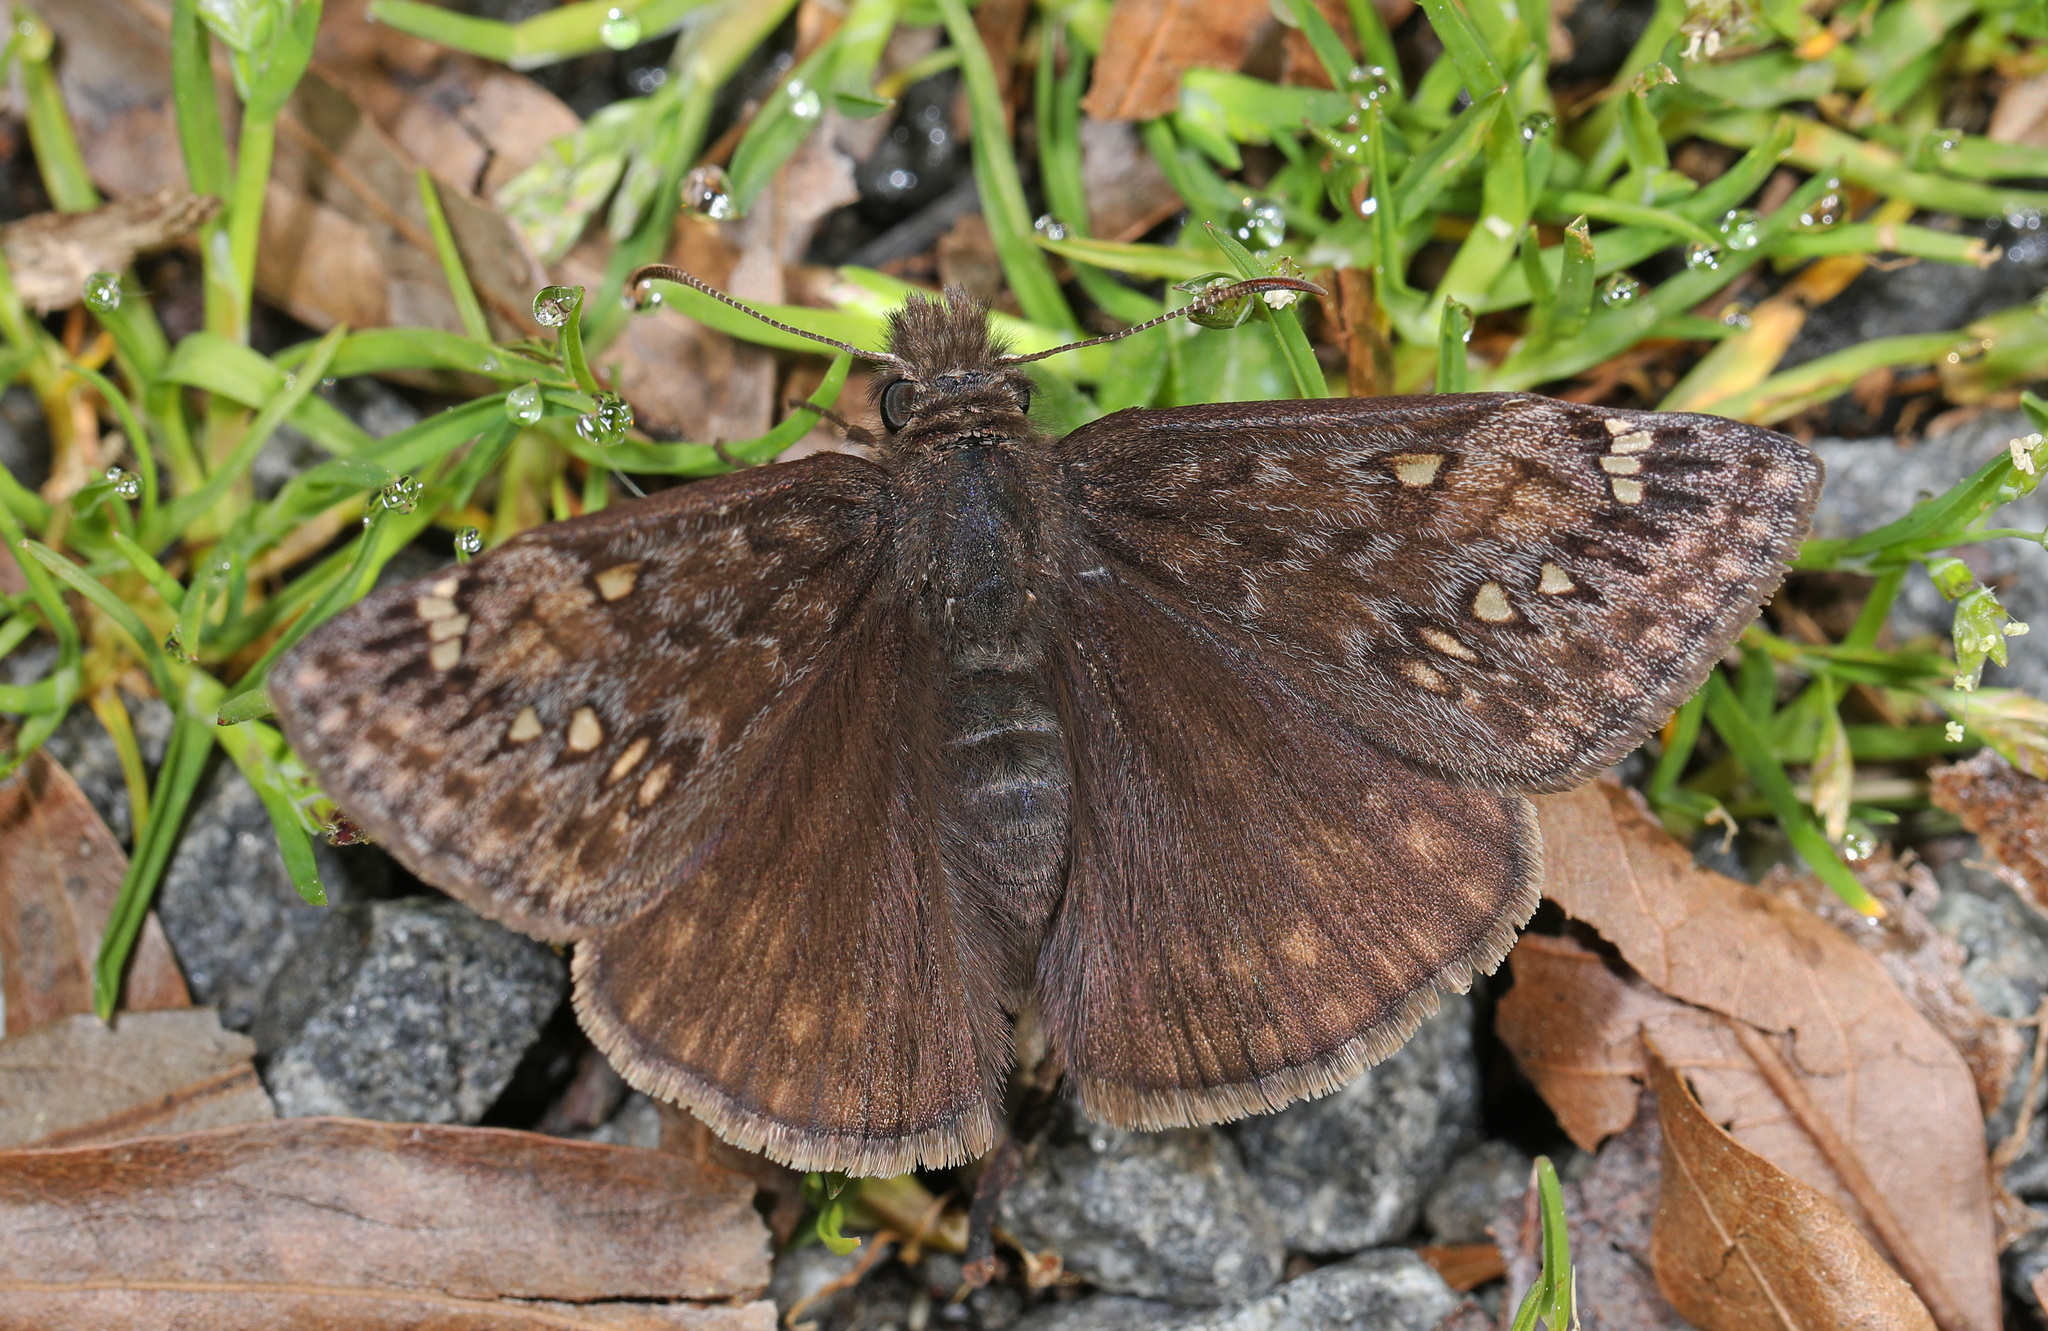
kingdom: Animalia
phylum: Arthropoda
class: Insecta
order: Lepidoptera
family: Hesperiidae
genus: Erynnis
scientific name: Erynnis juvenalis
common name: Juvenal's duskywing
